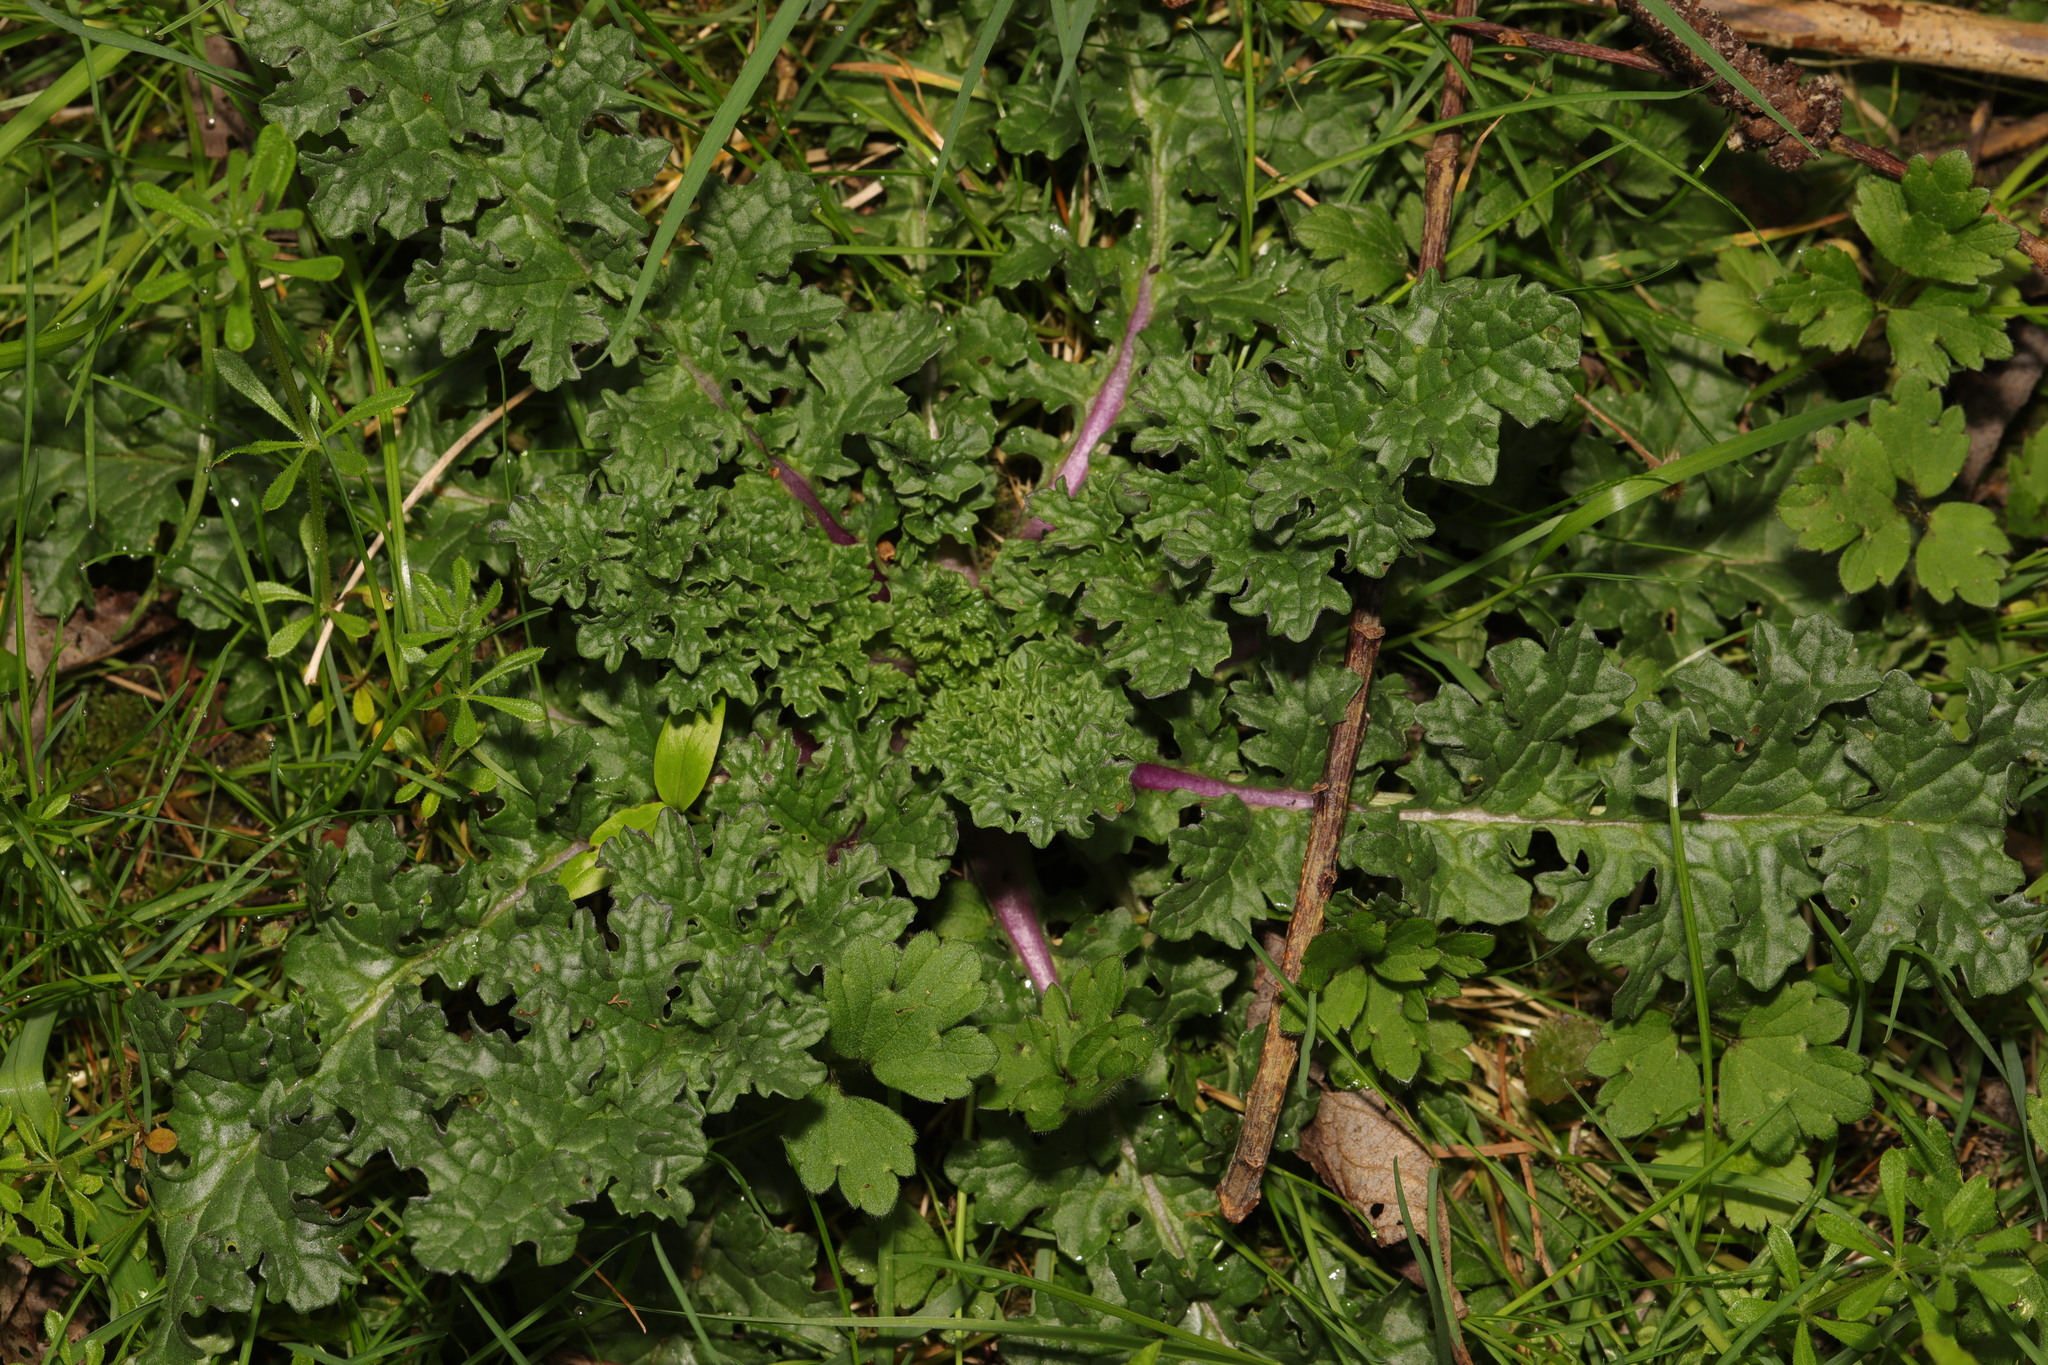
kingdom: Plantae
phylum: Tracheophyta
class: Magnoliopsida
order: Asterales
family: Asteraceae
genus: Jacobaea
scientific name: Jacobaea vulgaris
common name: Stinking willie
